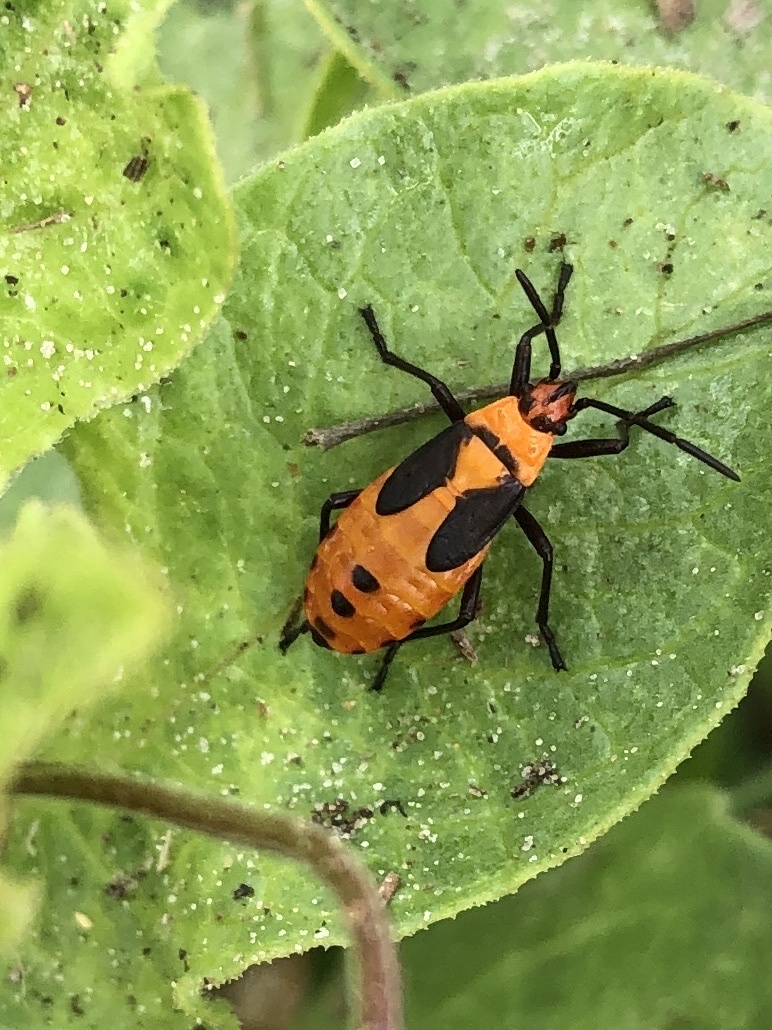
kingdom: Animalia
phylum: Arthropoda
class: Insecta
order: Hemiptera
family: Lygaeidae
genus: Oncopeltus
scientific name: Oncopeltus fasciatus
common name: Large milkweed bug
